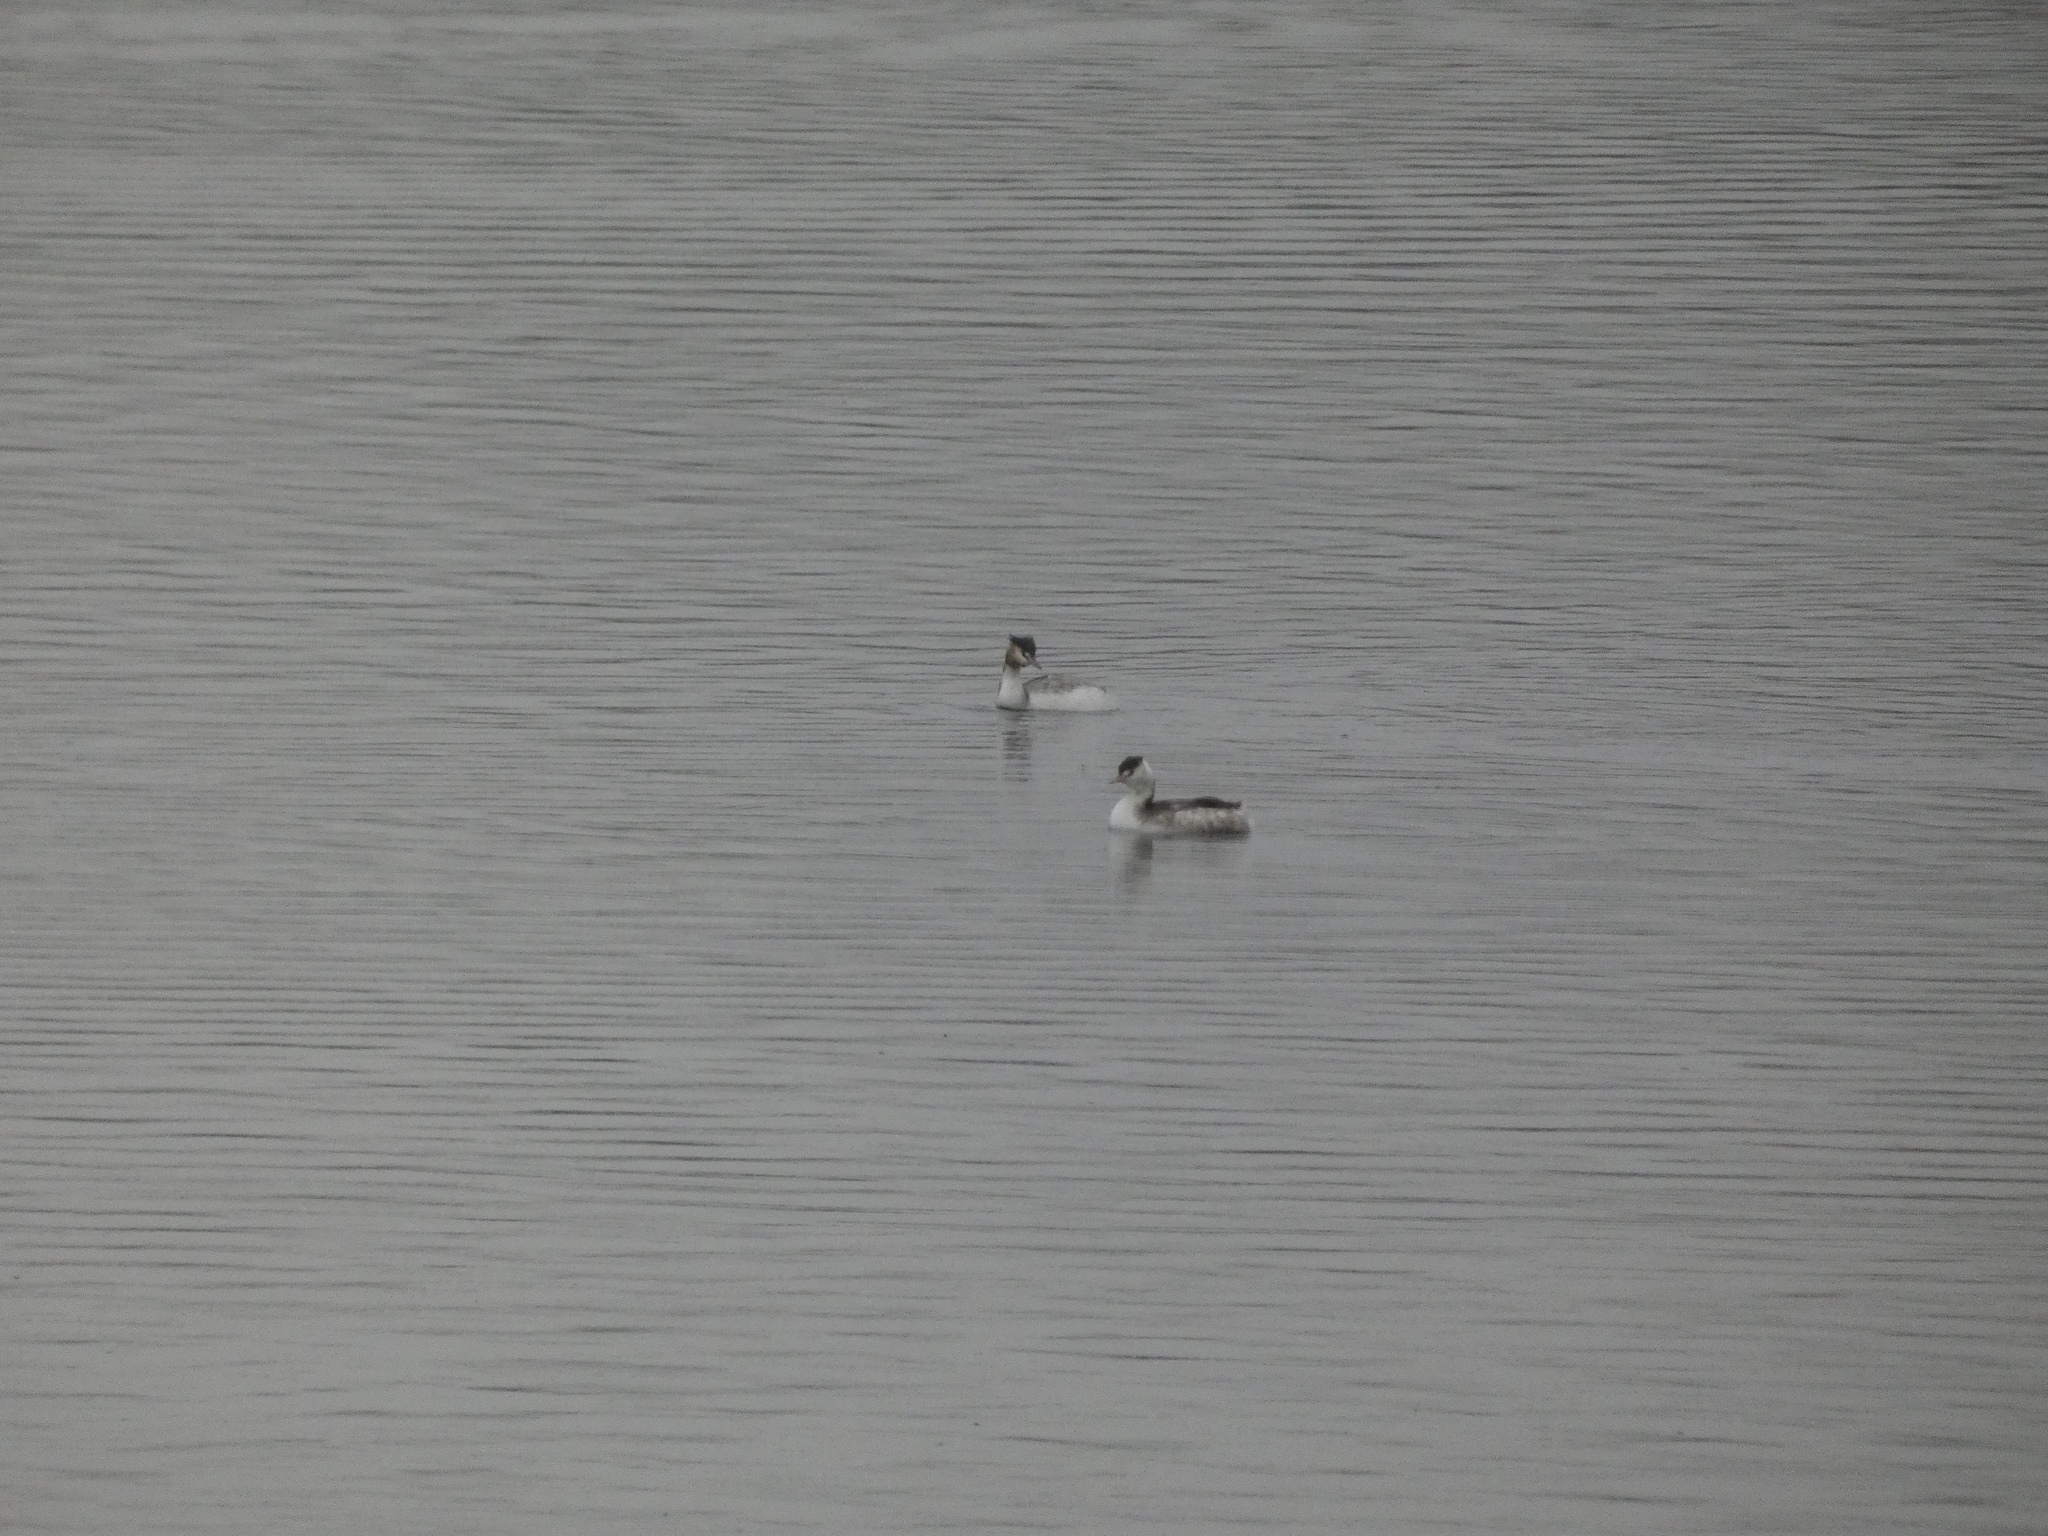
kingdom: Animalia
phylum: Chordata
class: Aves
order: Podicipediformes
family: Podicipedidae
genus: Podiceps
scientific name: Podiceps cristatus
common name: Great crested grebe
